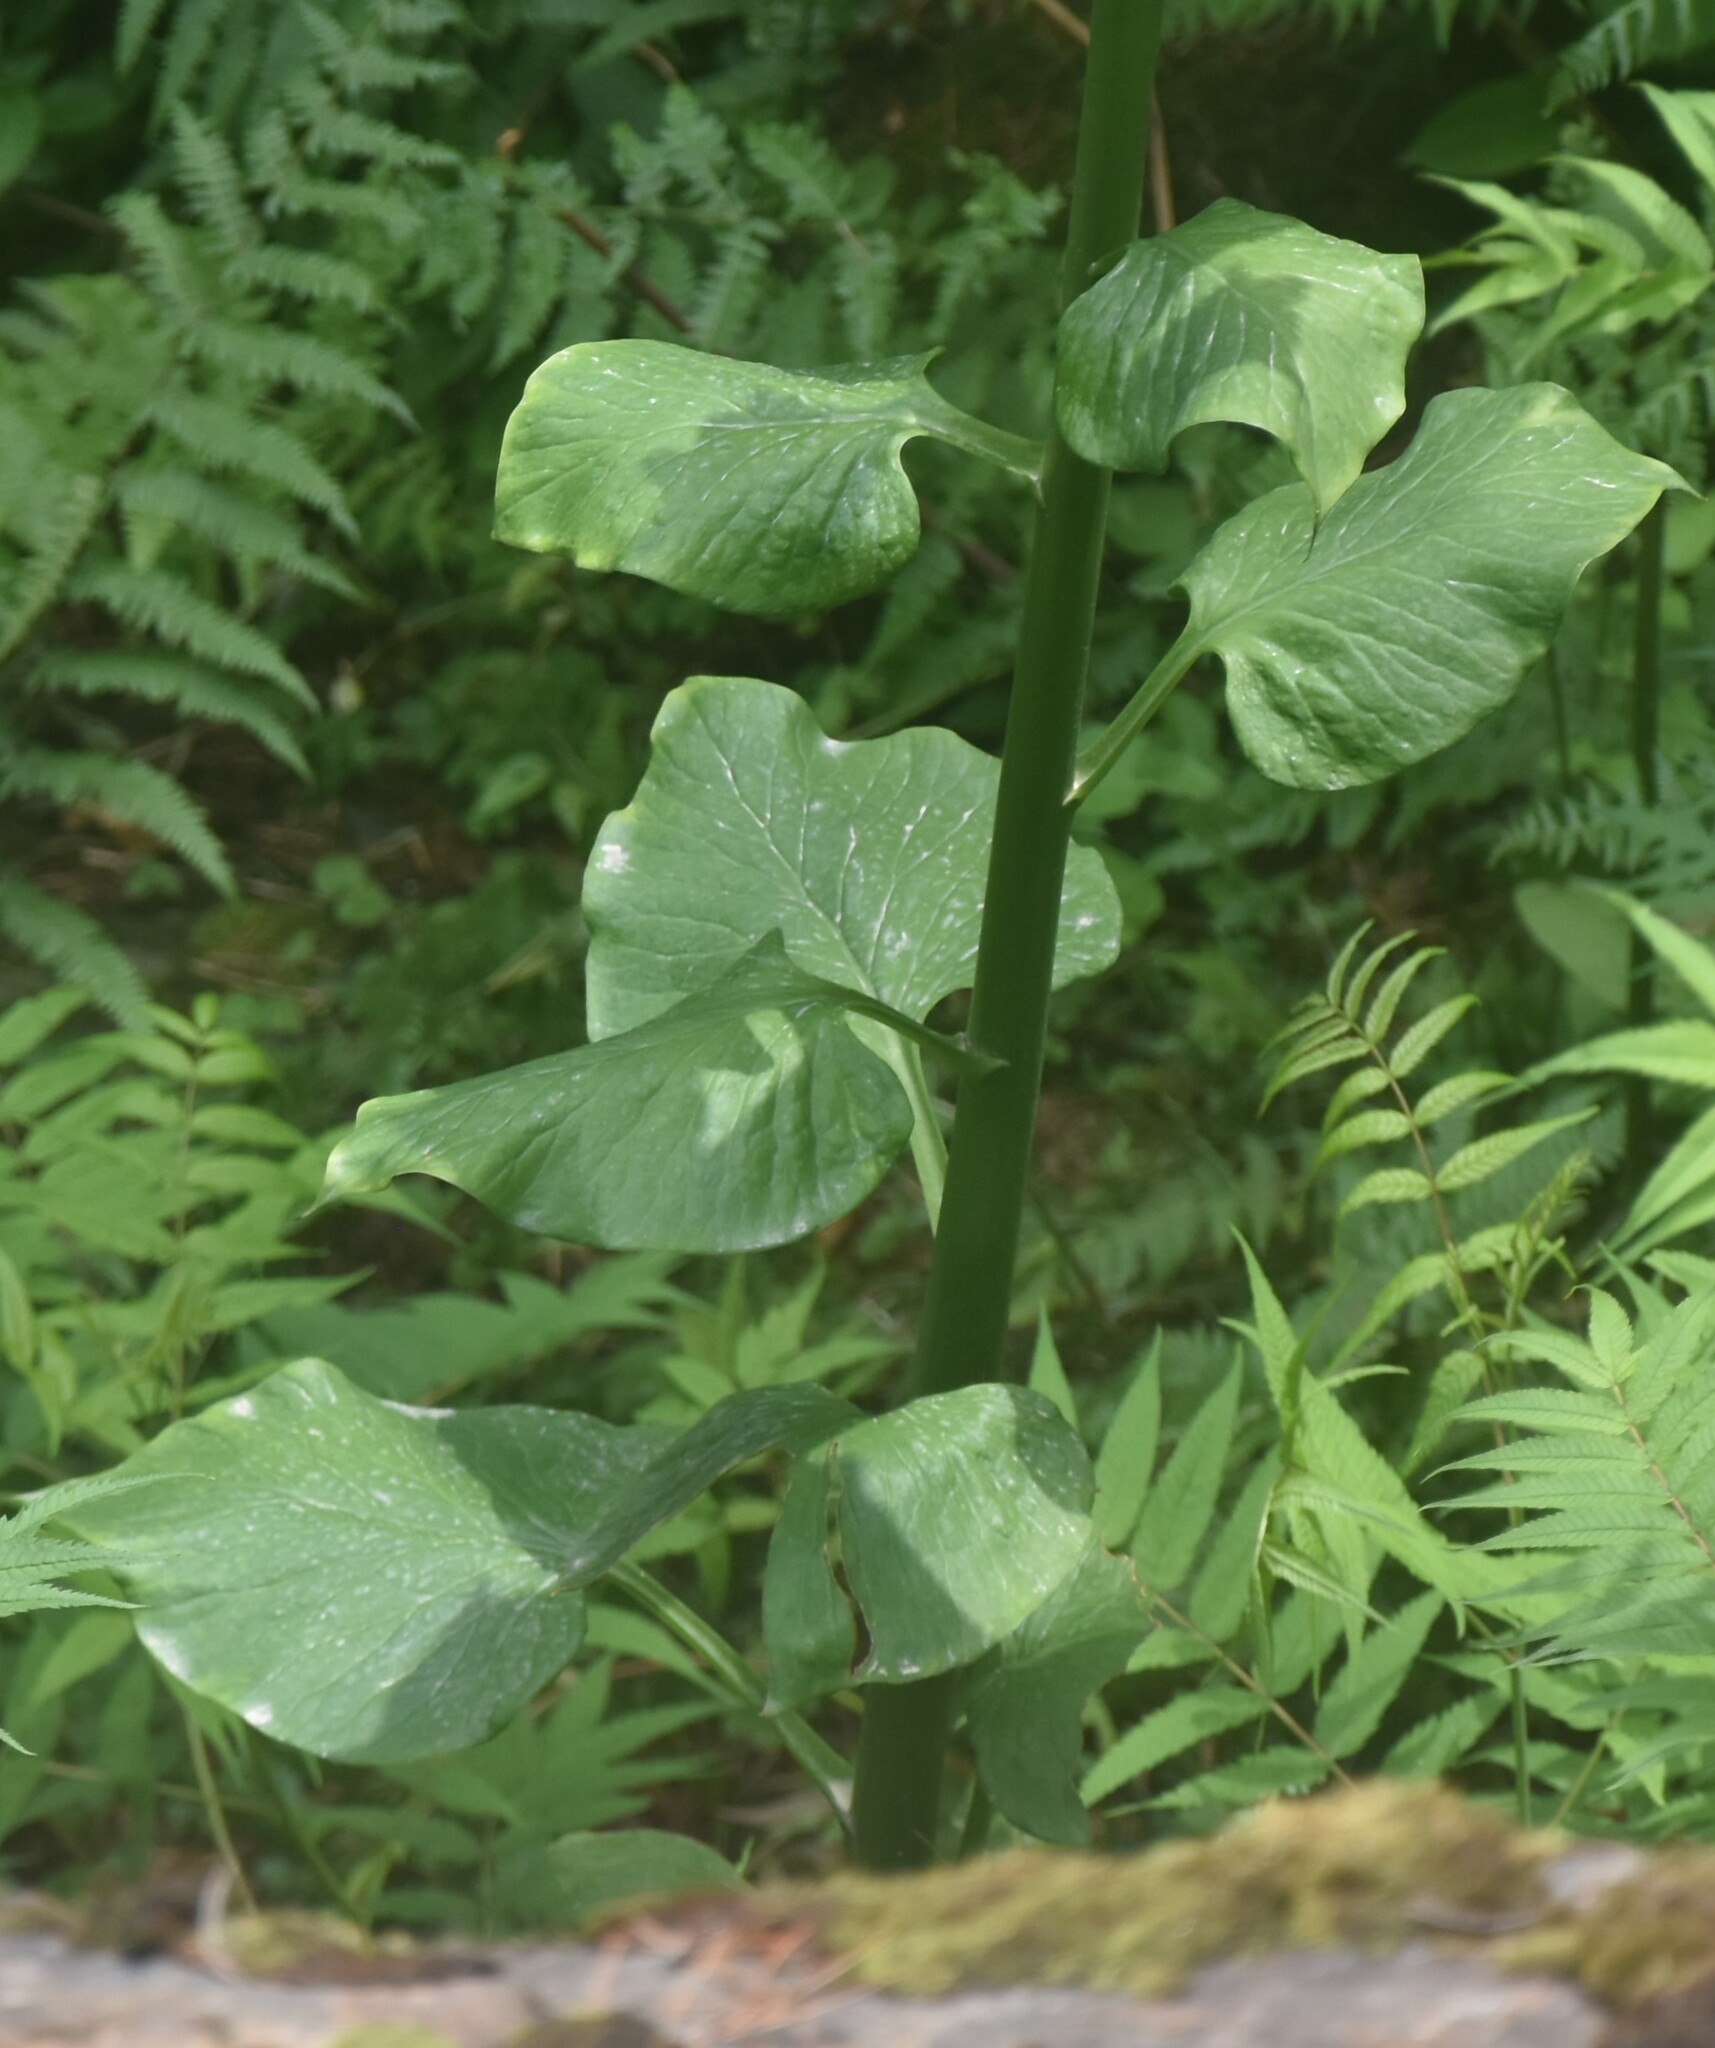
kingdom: Plantae
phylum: Tracheophyta
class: Liliopsida
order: Liliales
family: Liliaceae
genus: Cardiocrinum
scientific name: Cardiocrinum giganteum
